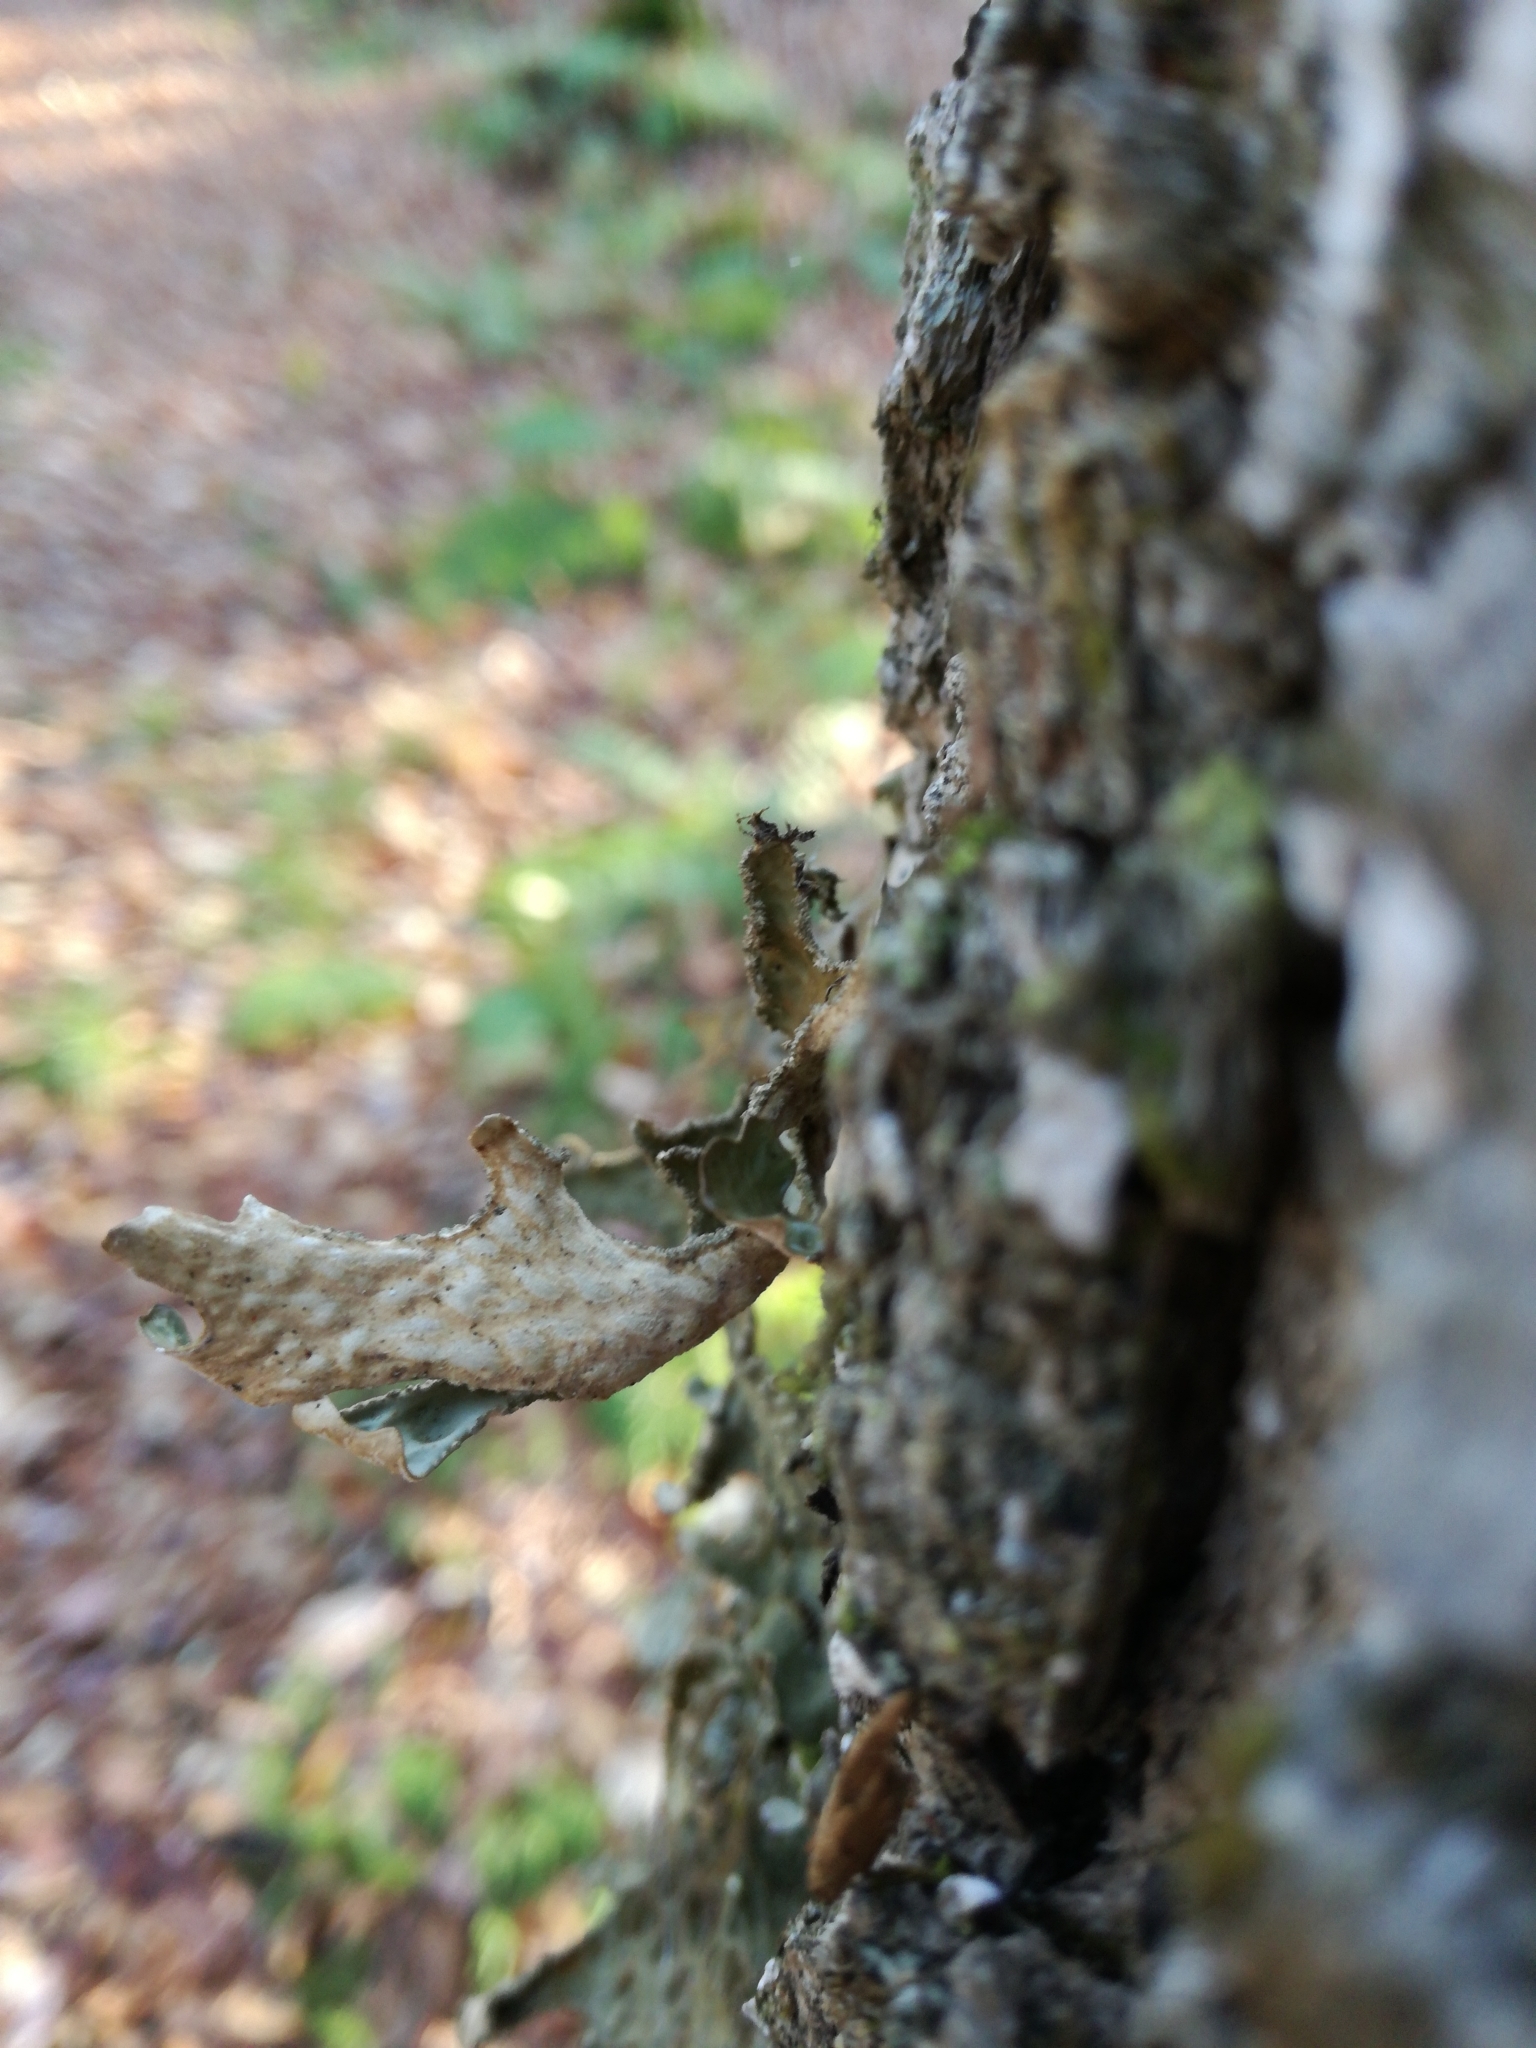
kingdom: Fungi
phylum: Ascomycota
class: Lecanoromycetes
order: Peltigerales
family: Lobariaceae
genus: Lobaria
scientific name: Lobaria pulmonaria
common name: Lungwort
